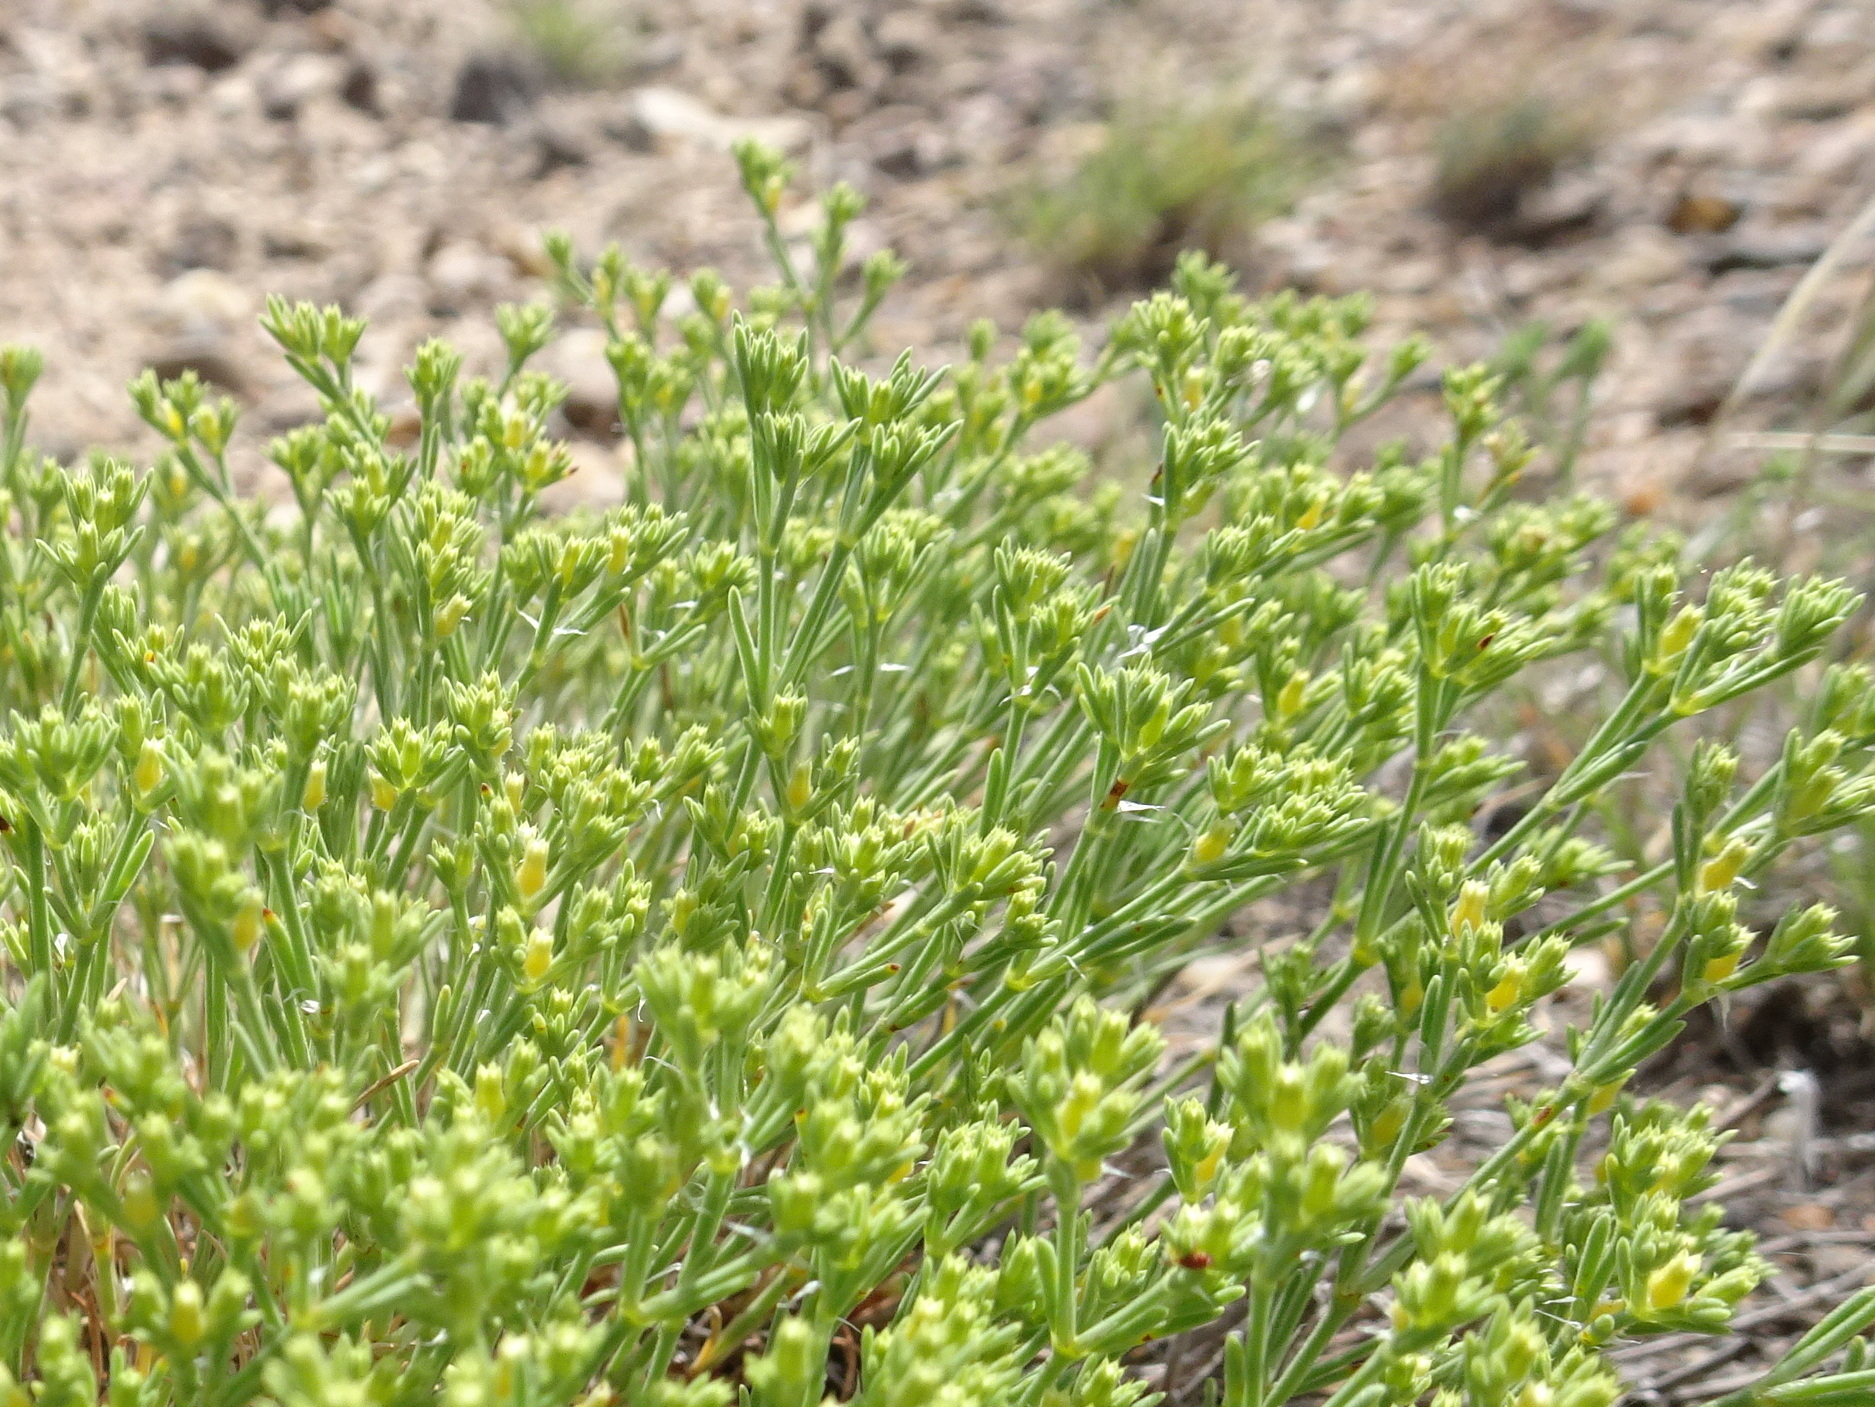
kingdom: Plantae
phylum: Tracheophyta
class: Magnoliopsida
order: Caryophyllales
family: Caryophyllaceae
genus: Paronychia
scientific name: Paronychia jamesii
